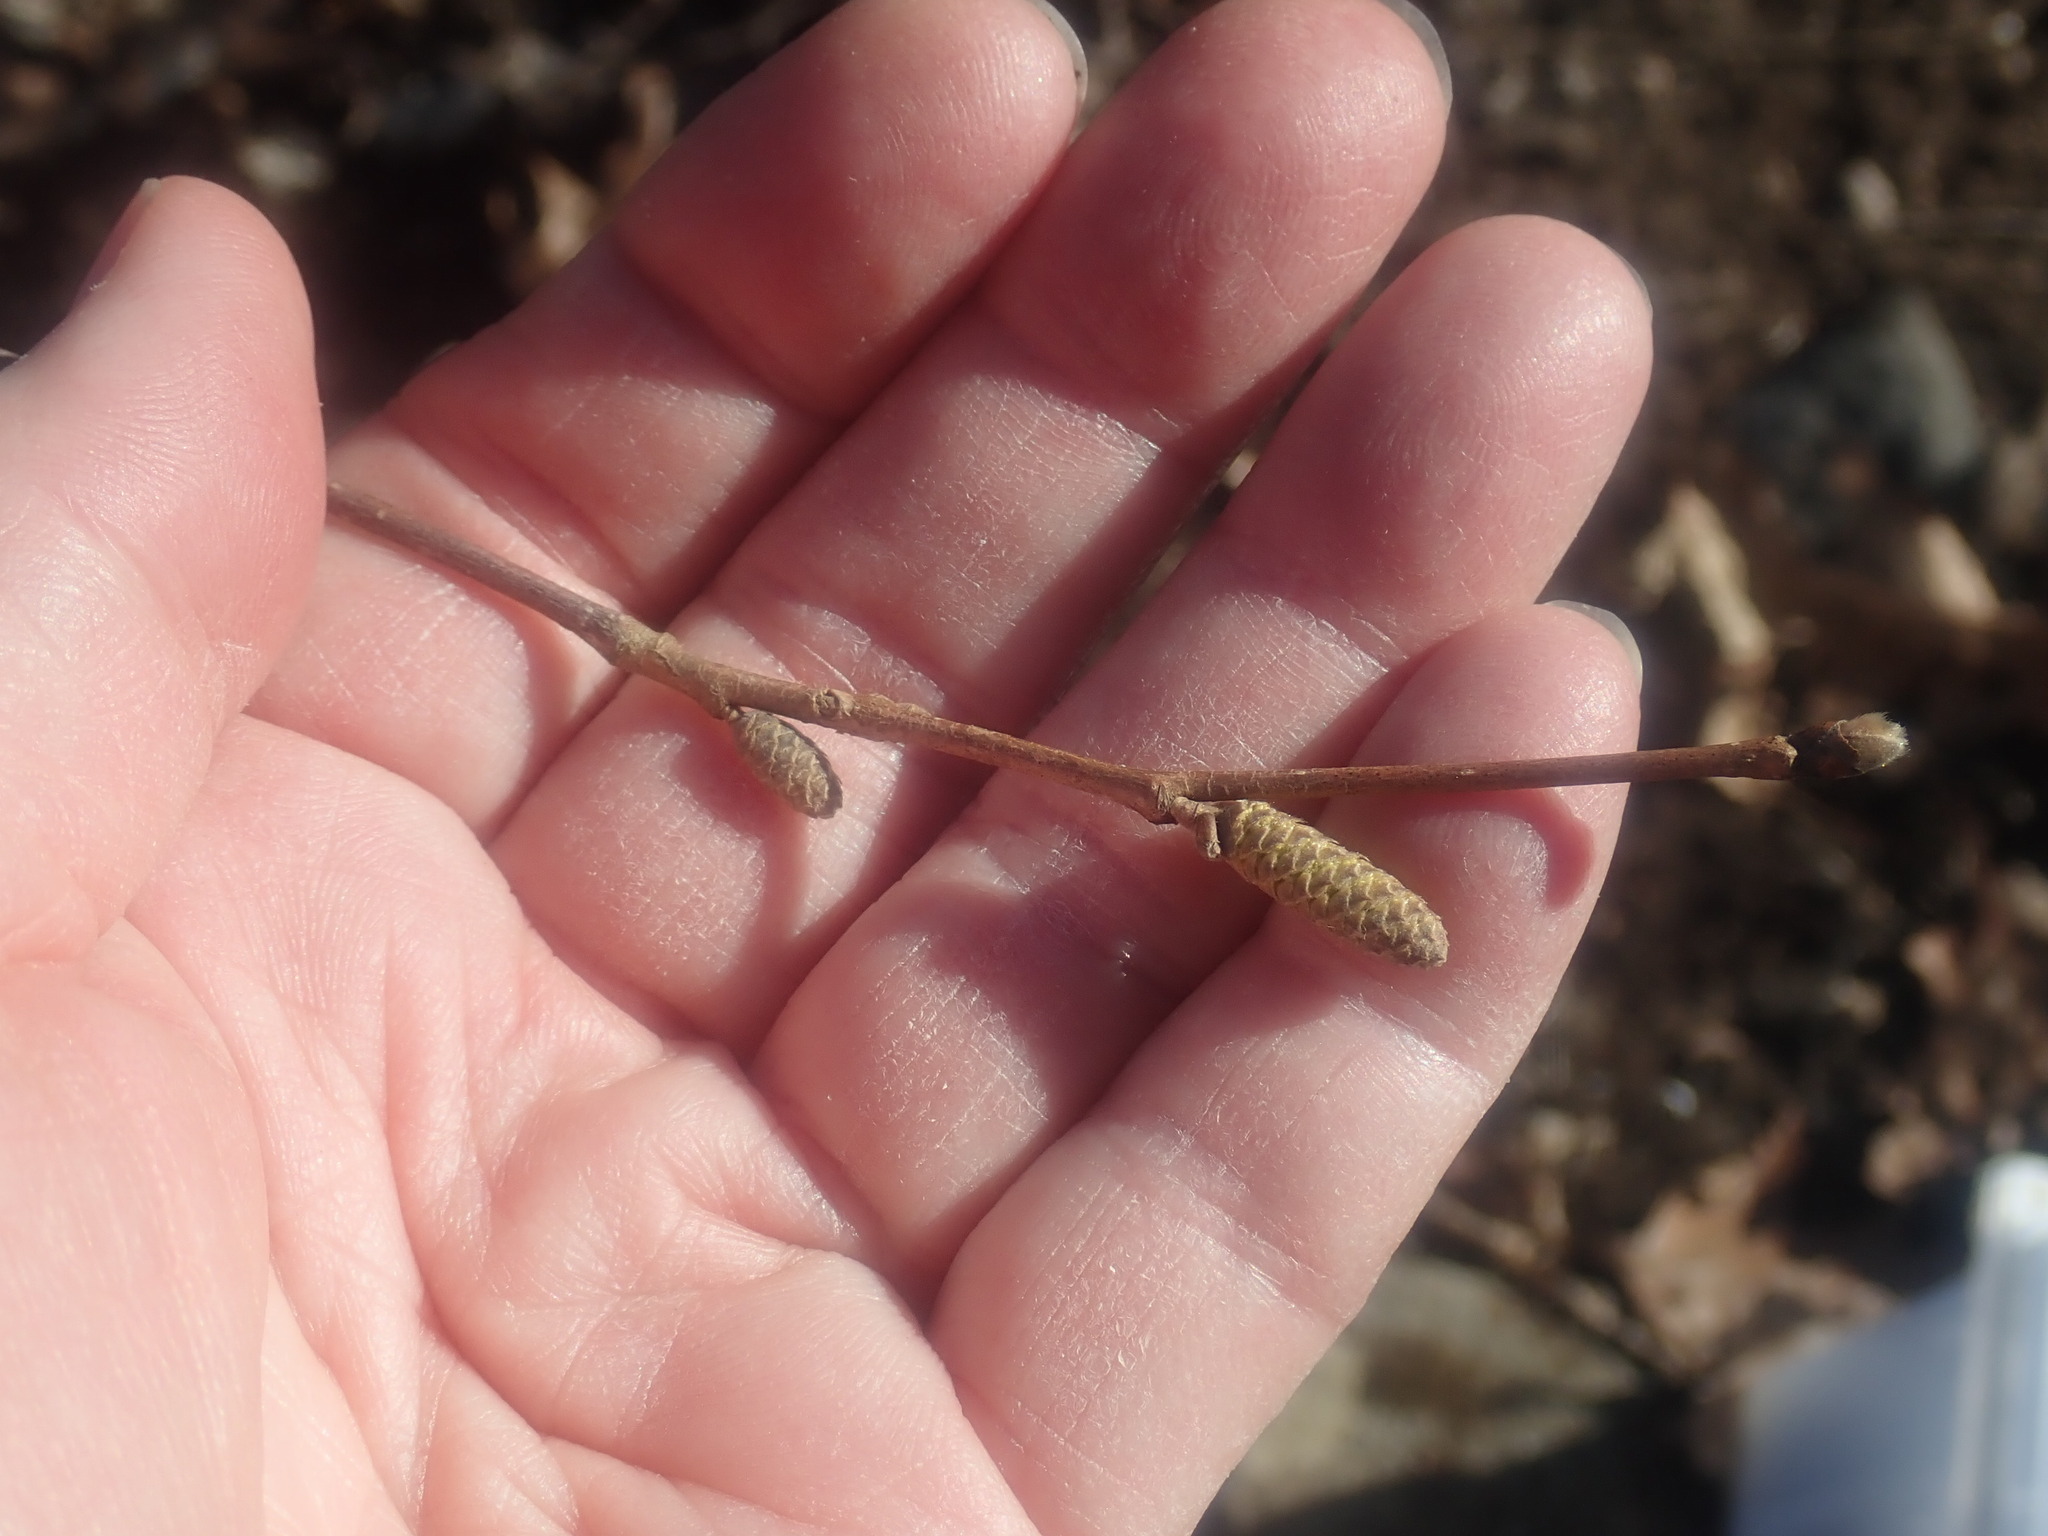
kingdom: Plantae
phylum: Tracheophyta
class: Magnoliopsida
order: Fagales
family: Betulaceae
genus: Corylus
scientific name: Corylus cornuta
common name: Beaked hazel
